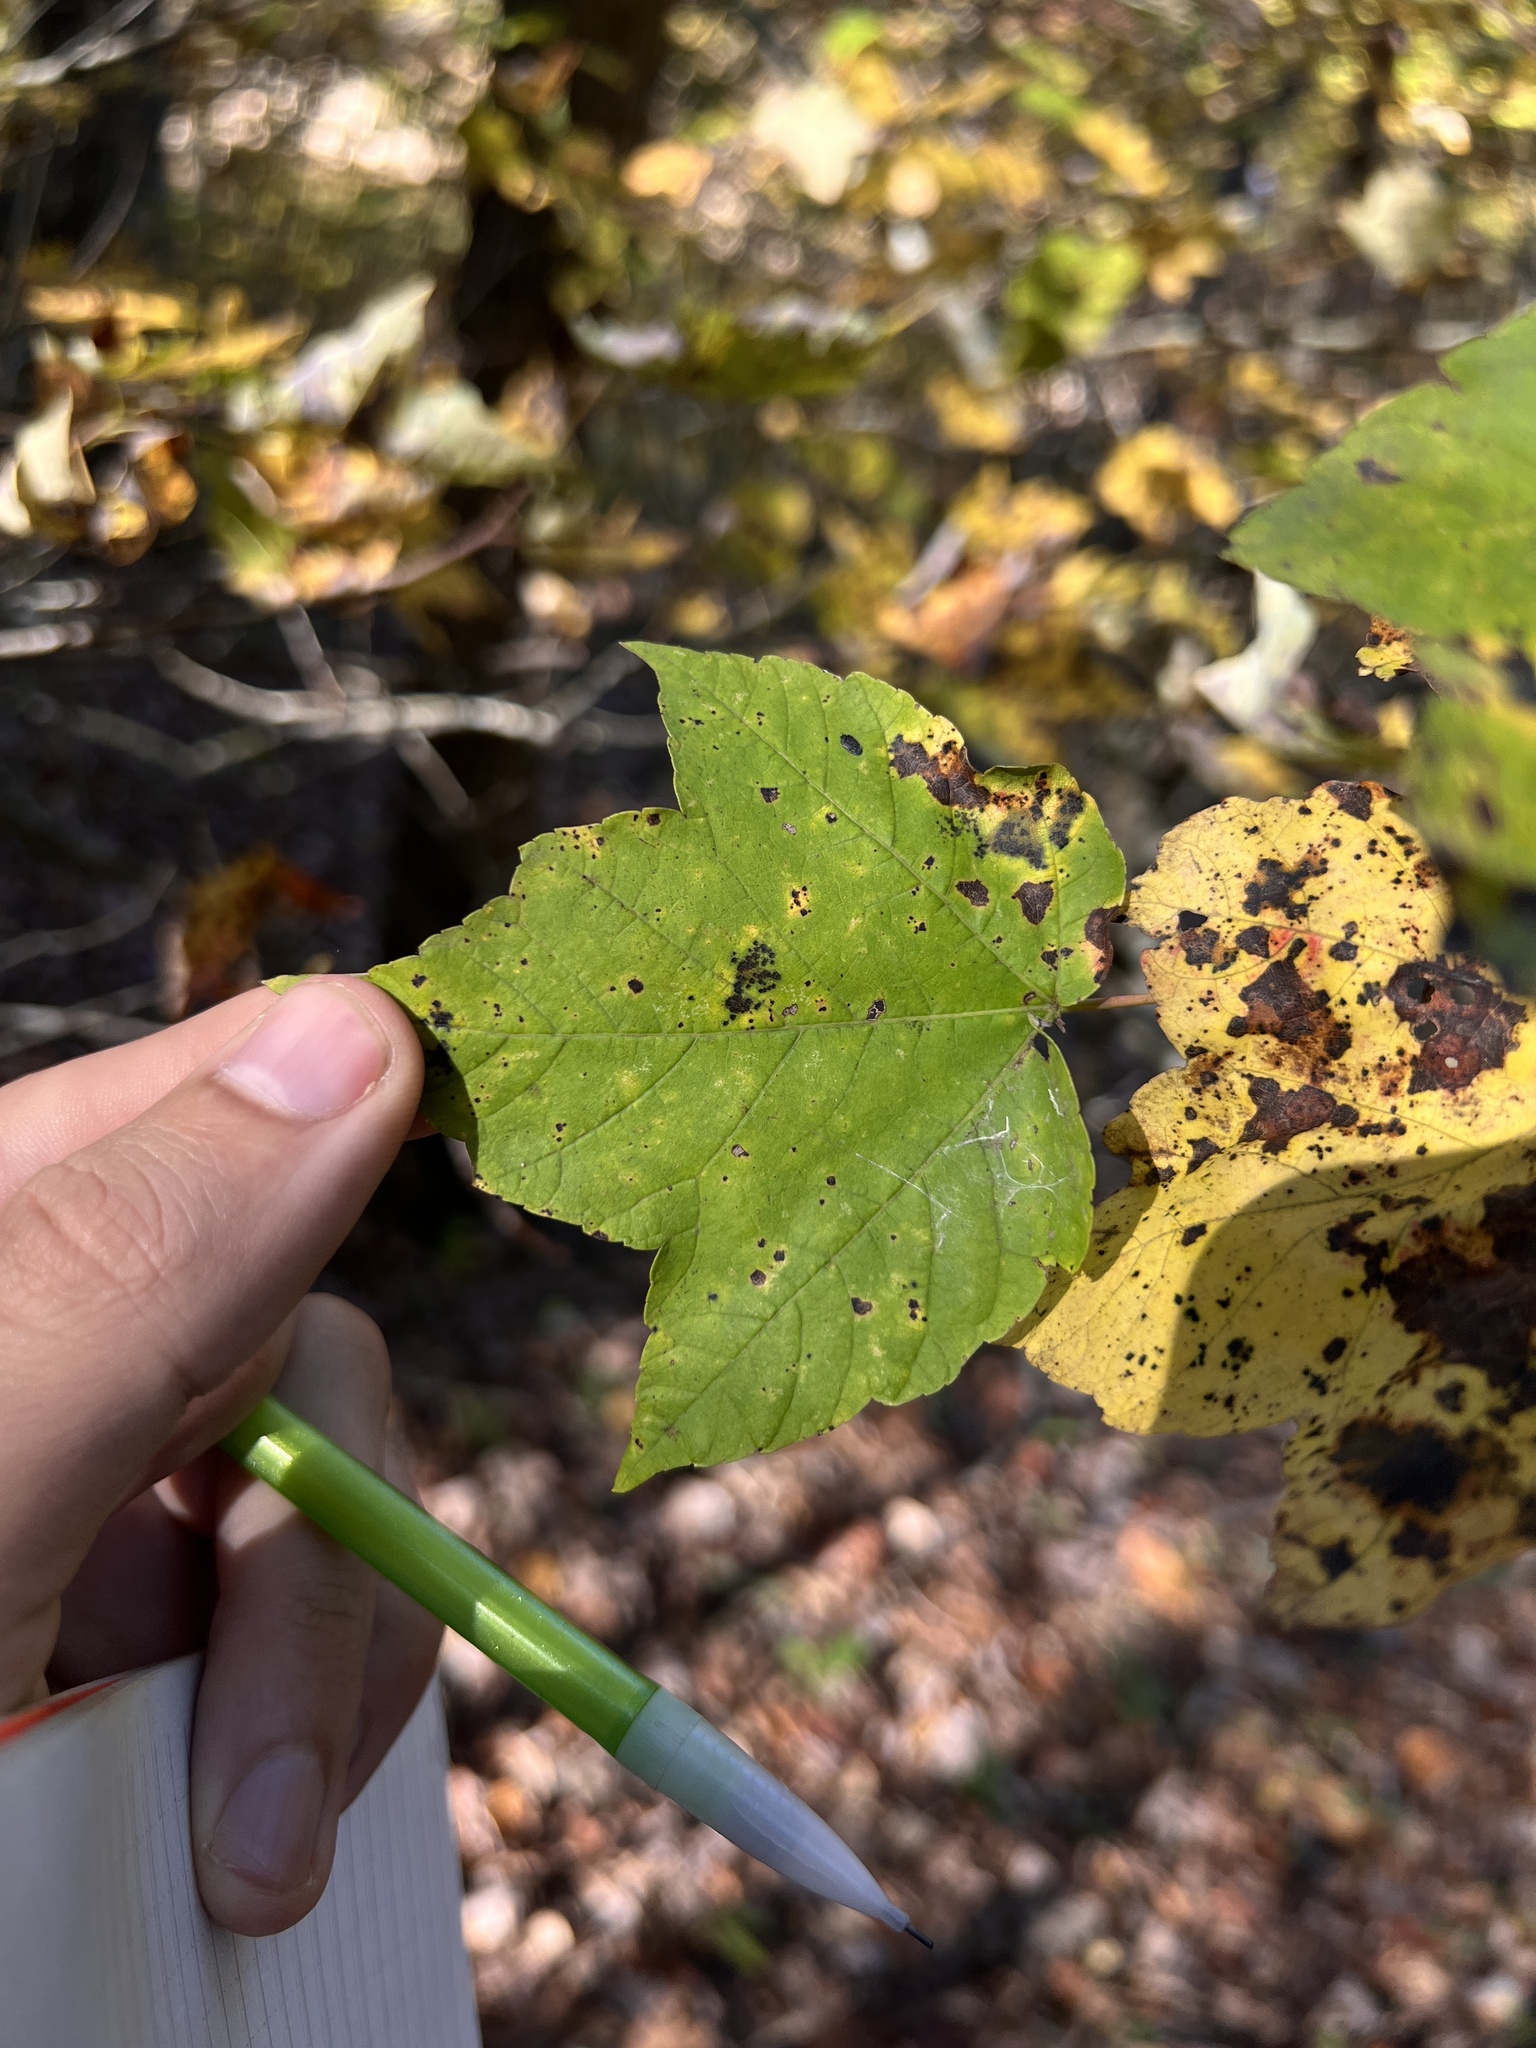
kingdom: Plantae
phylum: Tracheophyta
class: Magnoliopsida
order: Sapindales
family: Sapindaceae
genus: Acer
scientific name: Acer rubrum
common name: Red maple
